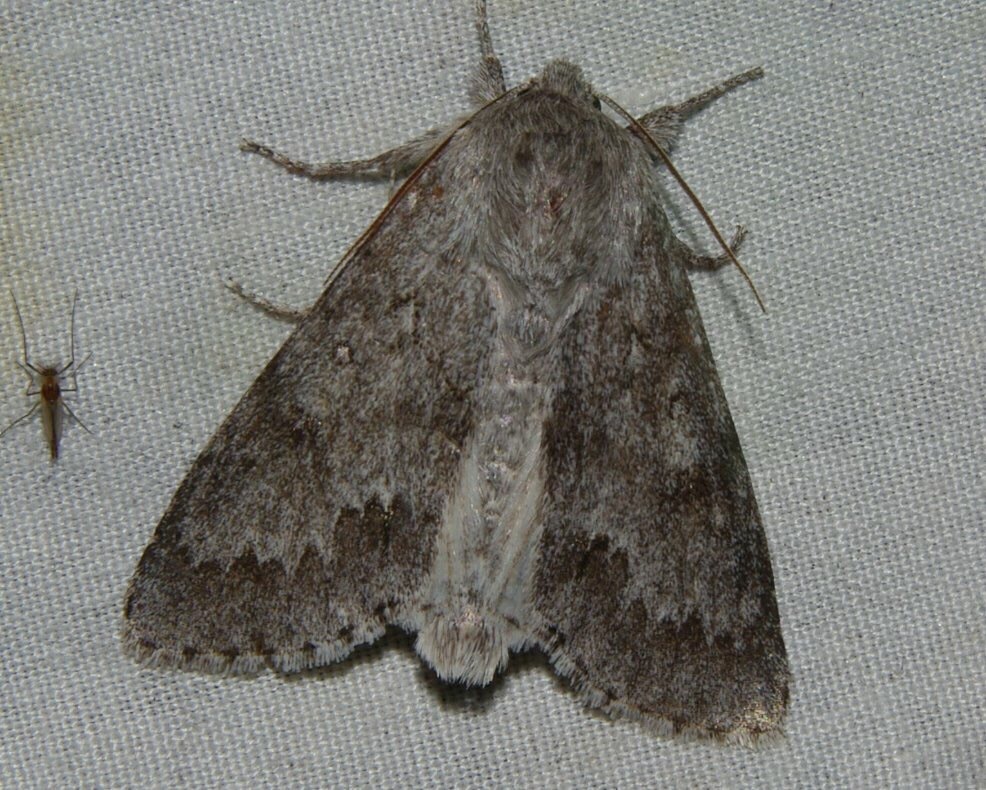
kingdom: Animalia
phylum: Arthropoda
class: Insecta
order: Lepidoptera
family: Noctuidae
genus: Acronicta
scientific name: Acronicta insita
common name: Large gray dagger
